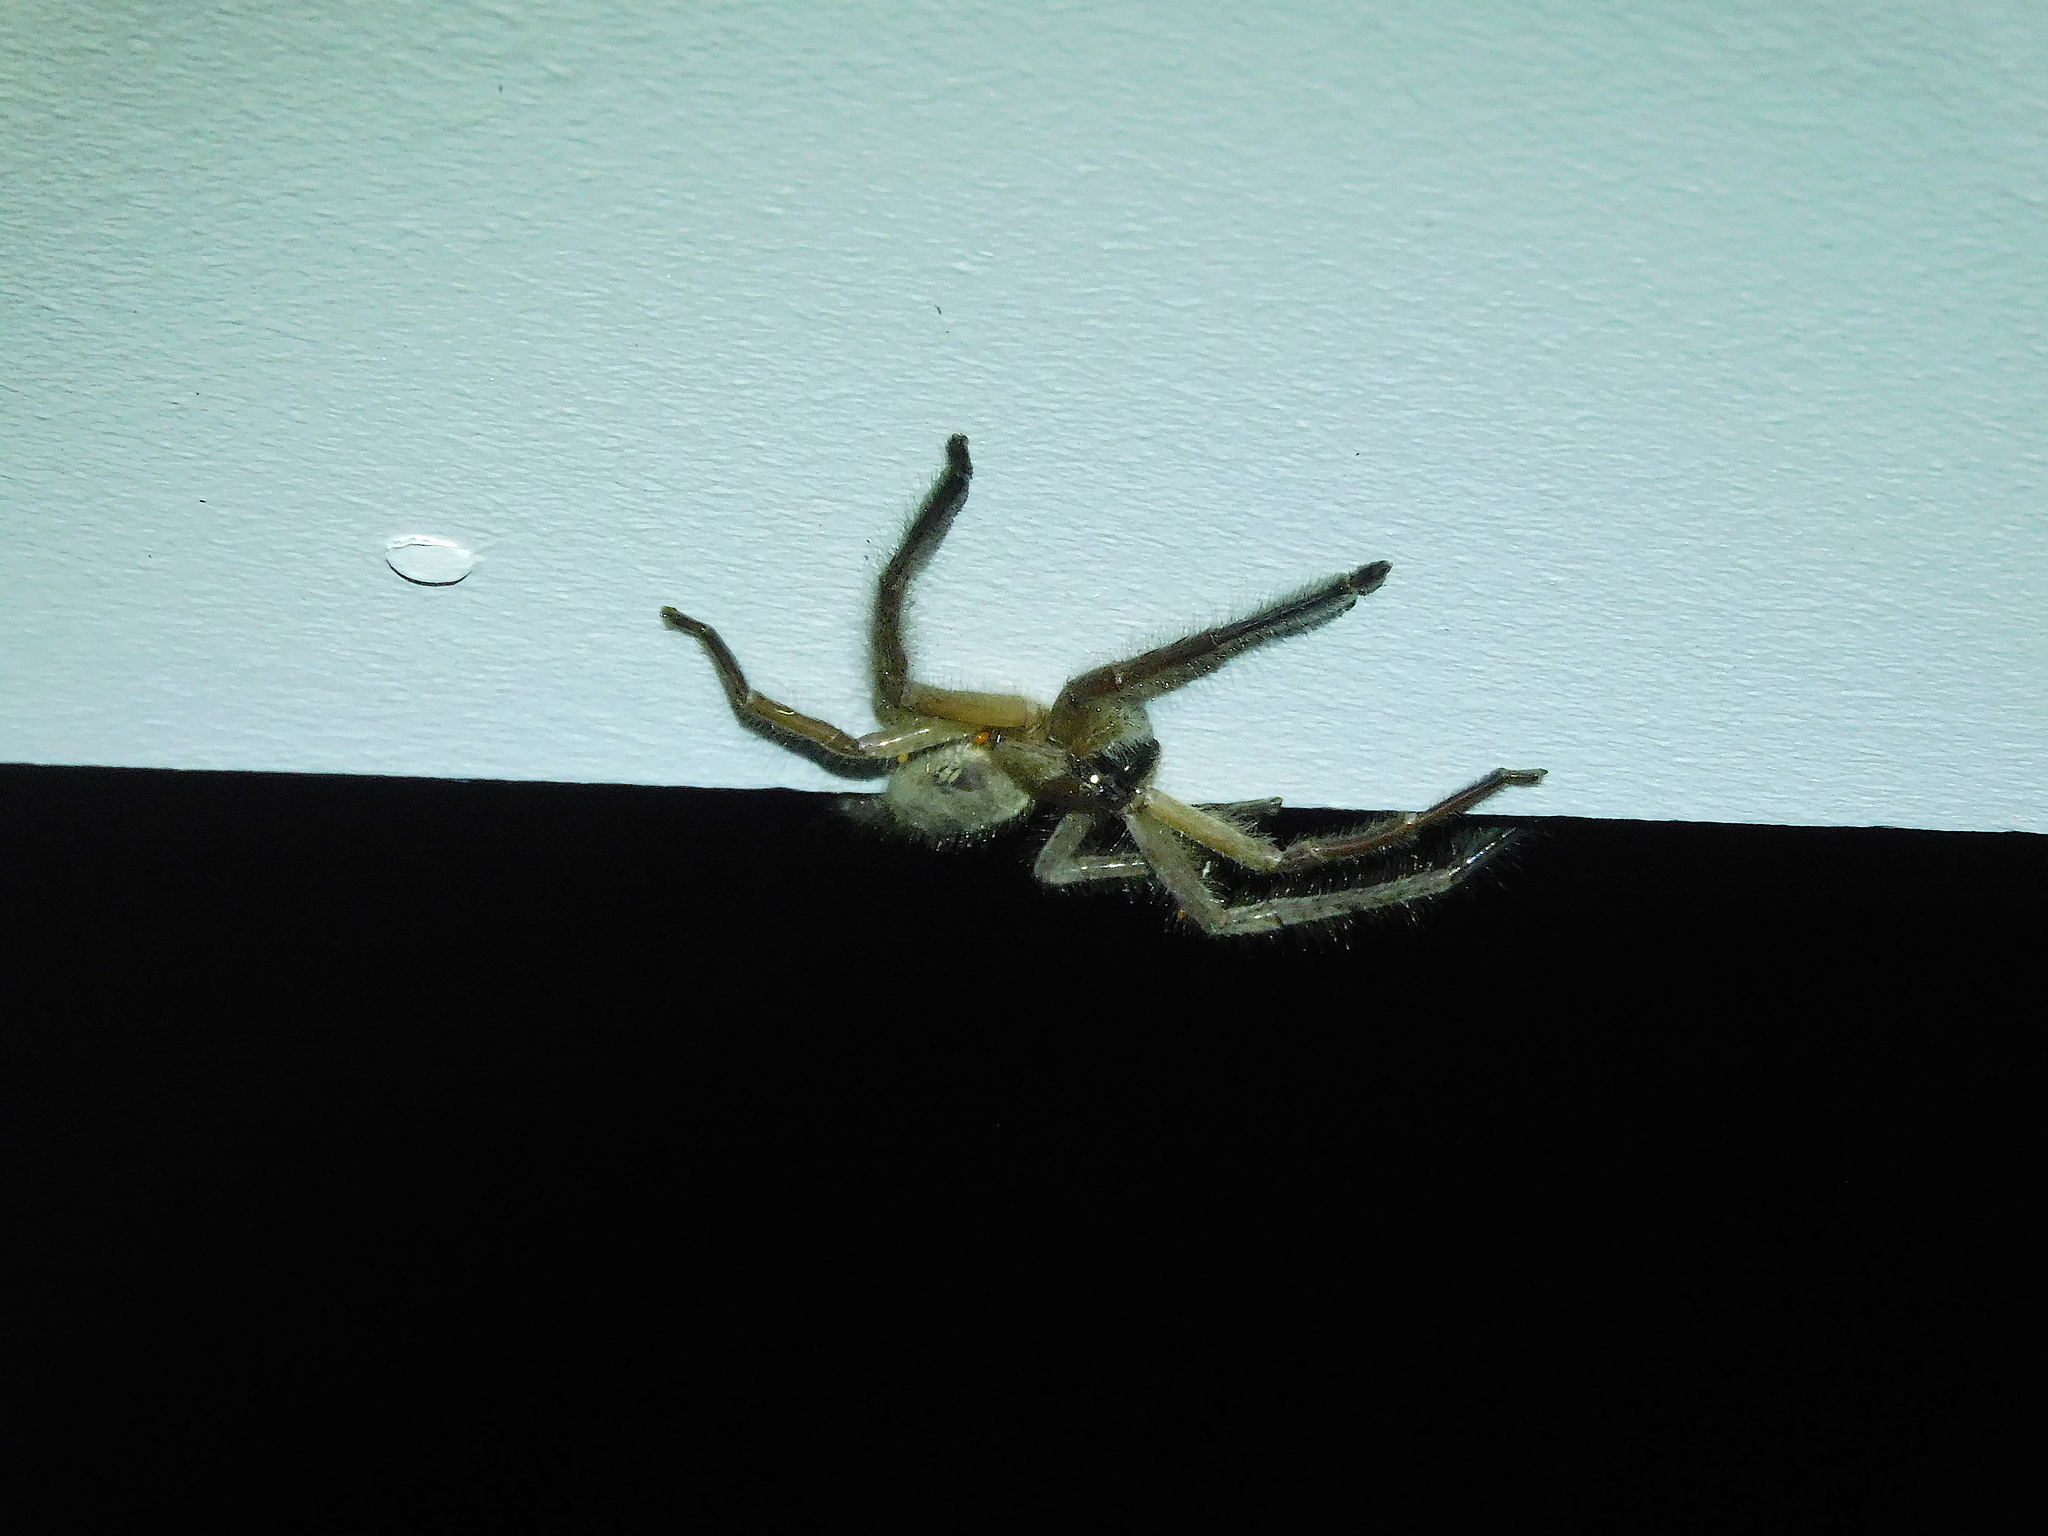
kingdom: Animalia
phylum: Arthropoda
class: Arachnida
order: Araneae
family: Sparassidae
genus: Delena
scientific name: Delena cancerides
